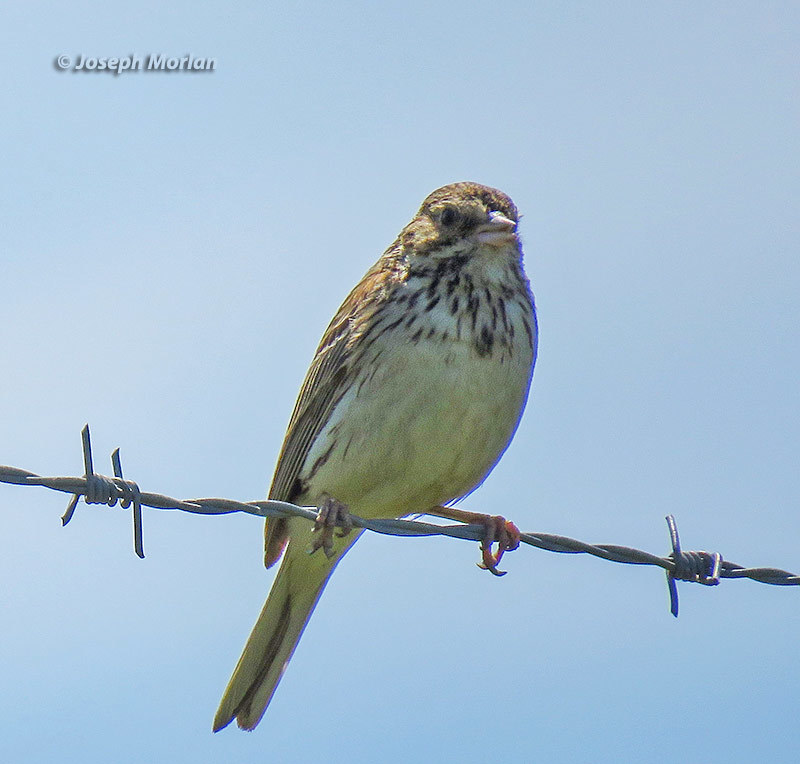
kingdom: Animalia
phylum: Chordata
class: Aves
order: Passeriformes
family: Passerellidae
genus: Pooecetes
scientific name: Pooecetes gramineus
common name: Vesper sparrow
